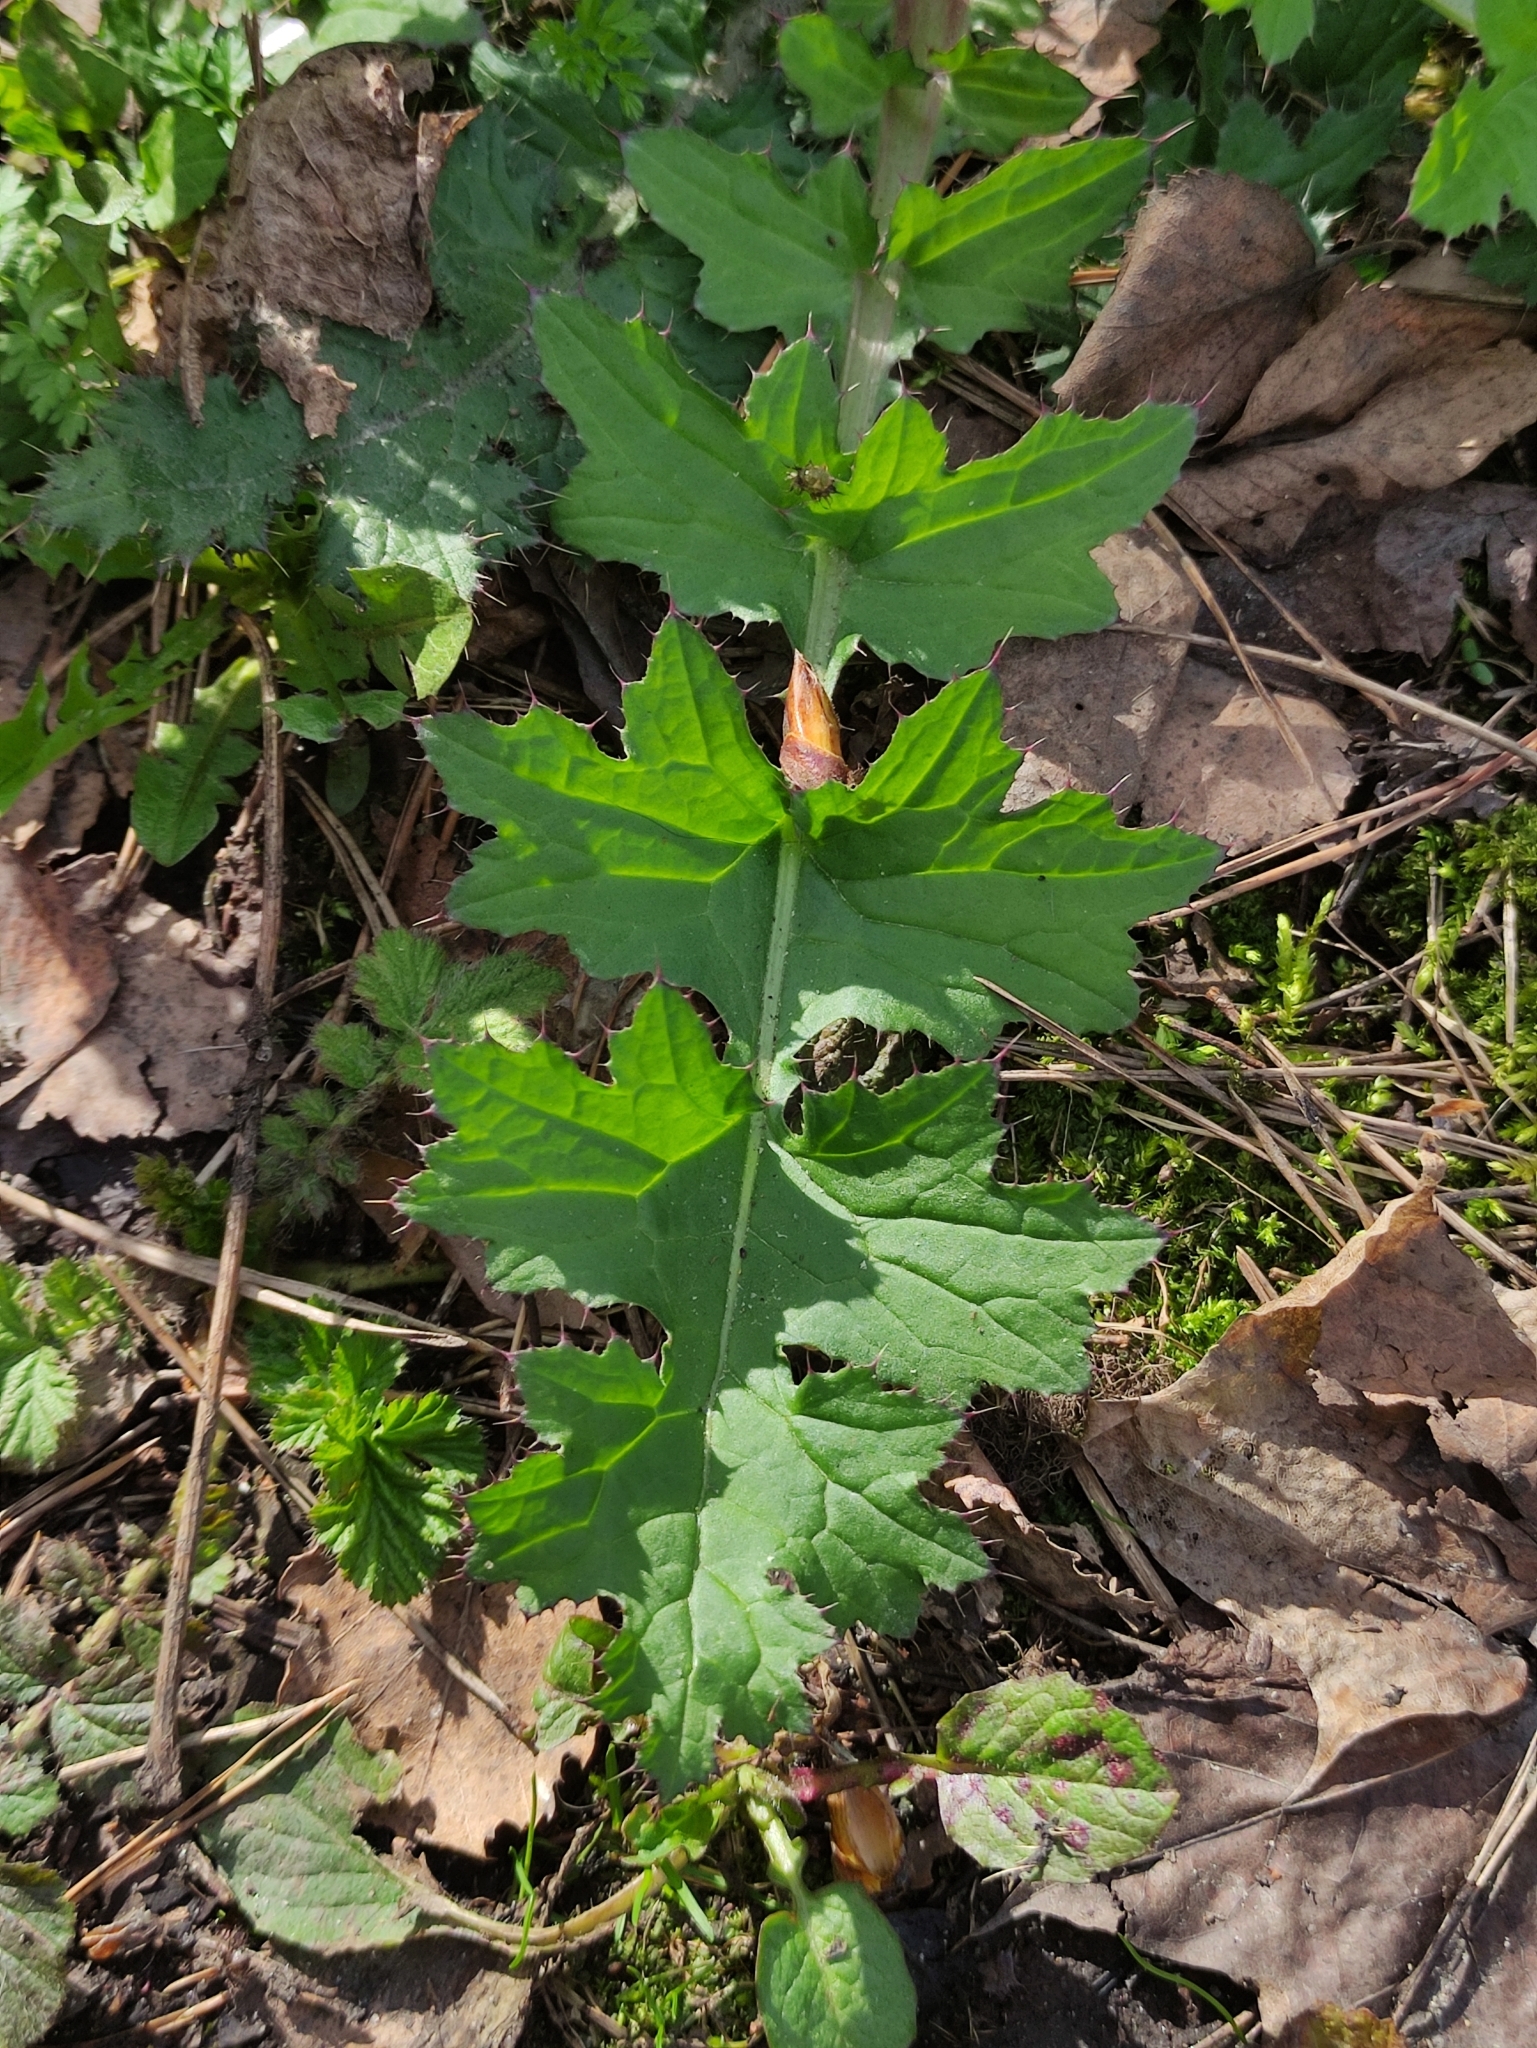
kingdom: Plantae
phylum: Tracheophyta
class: Magnoliopsida
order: Asterales
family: Asteraceae
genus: Carduus
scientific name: Carduus crispus
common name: Welted thistle
